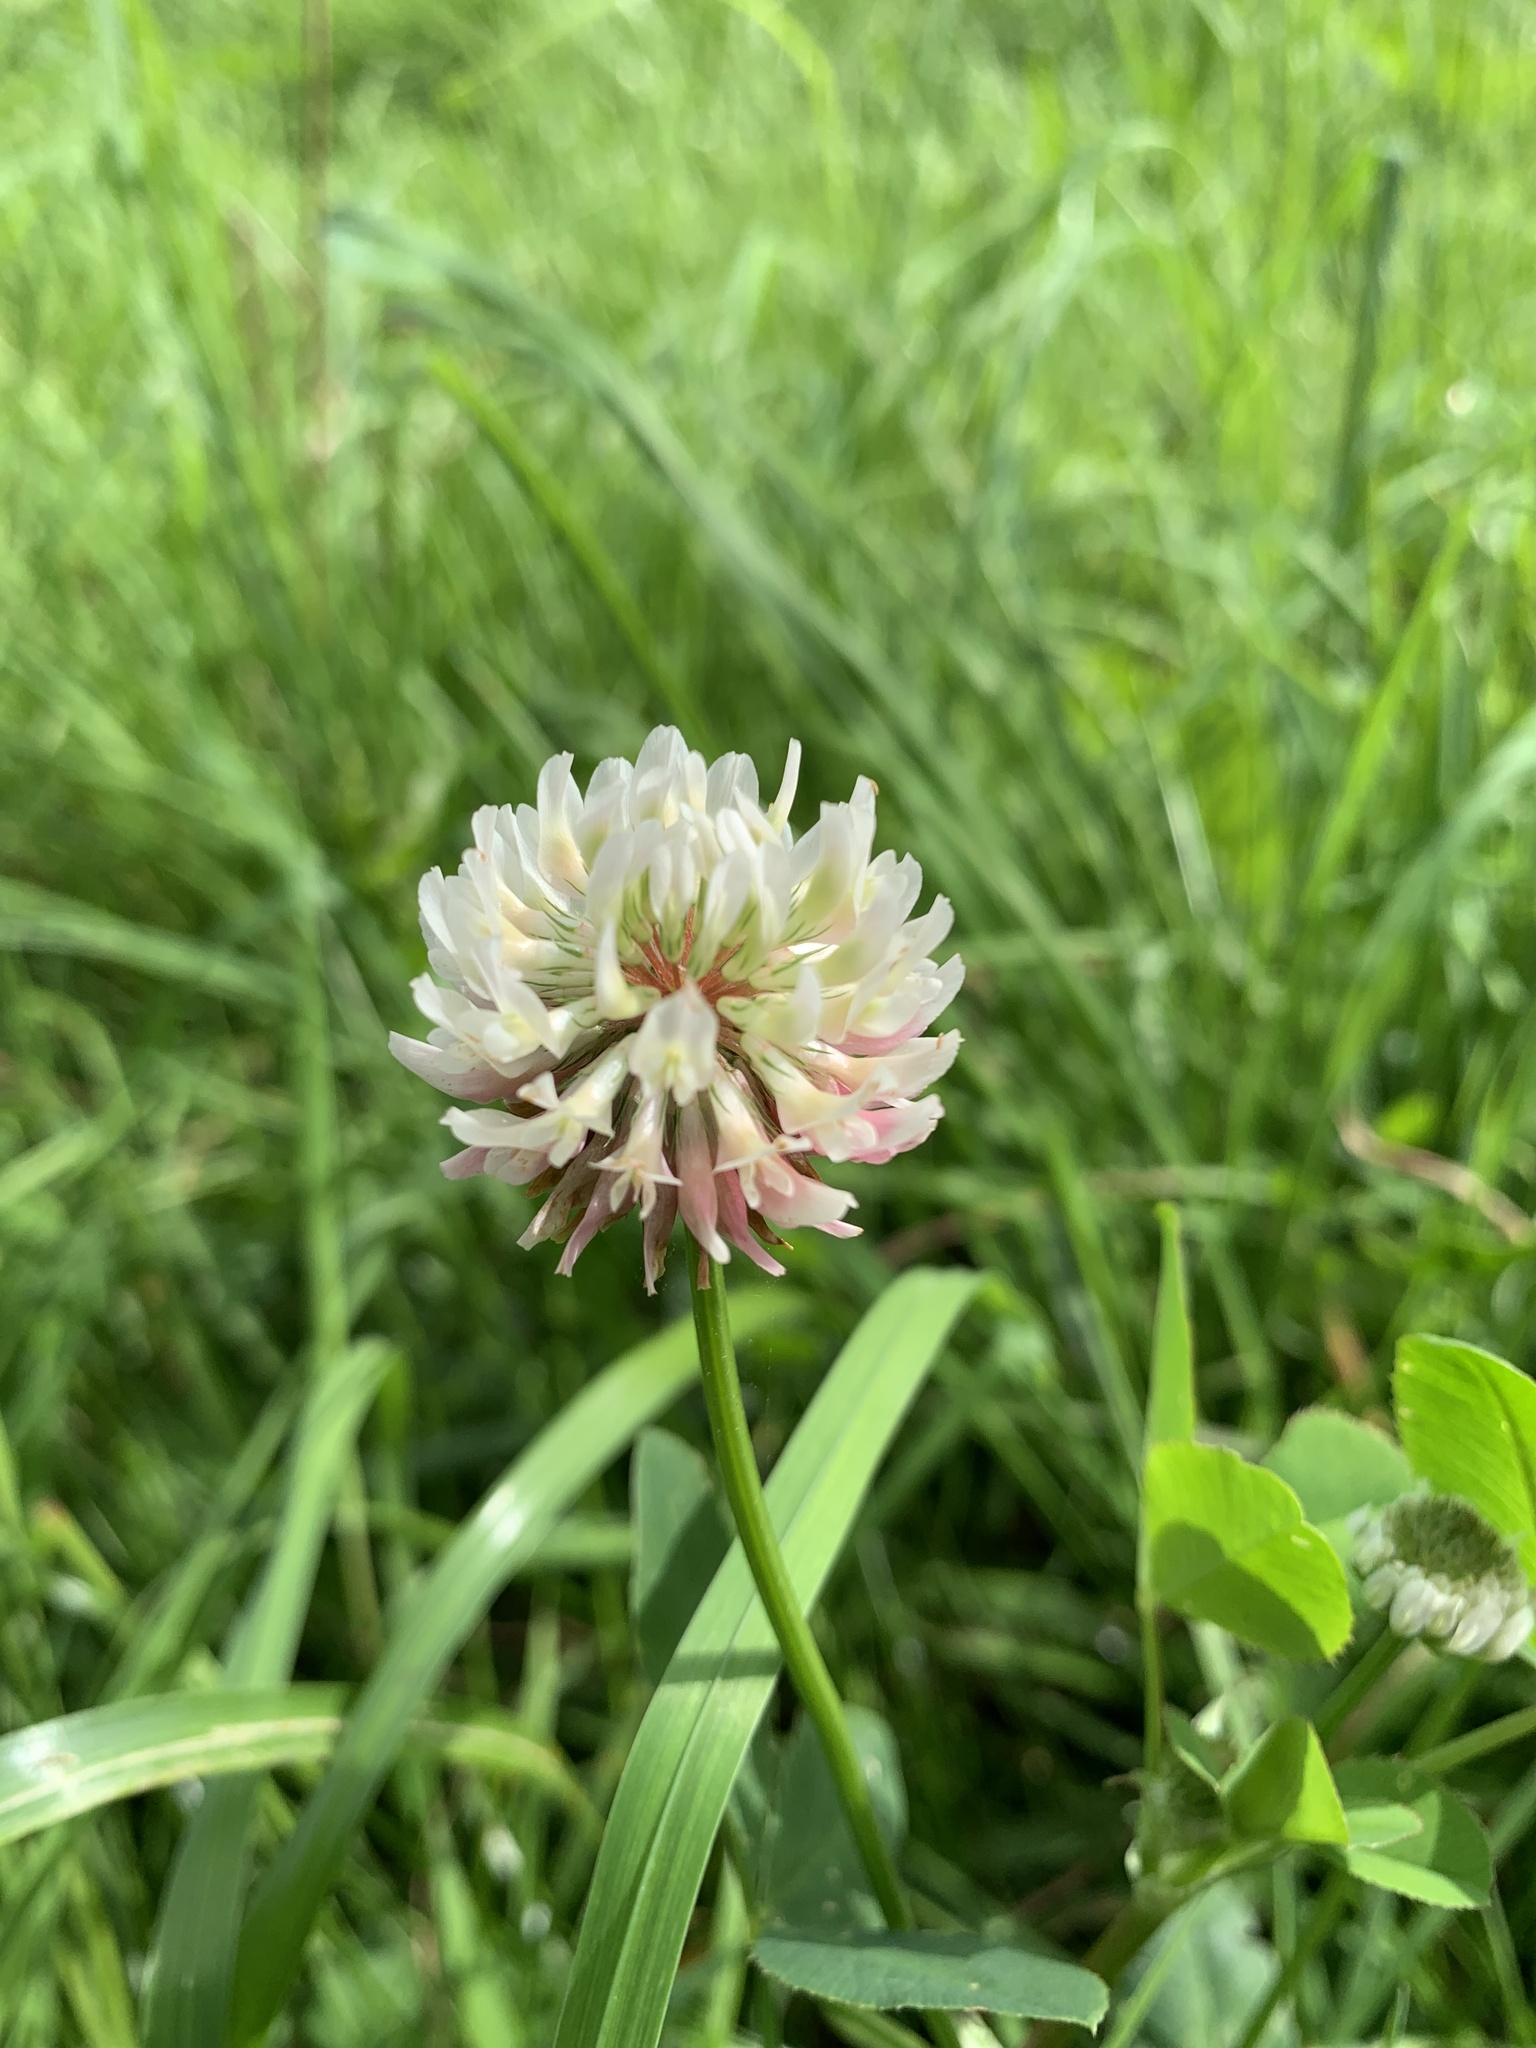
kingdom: Plantae
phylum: Tracheophyta
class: Magnoliopsida
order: Fabales
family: Fabaceae
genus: Trifolium
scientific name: Trifolium repens
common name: White clover
